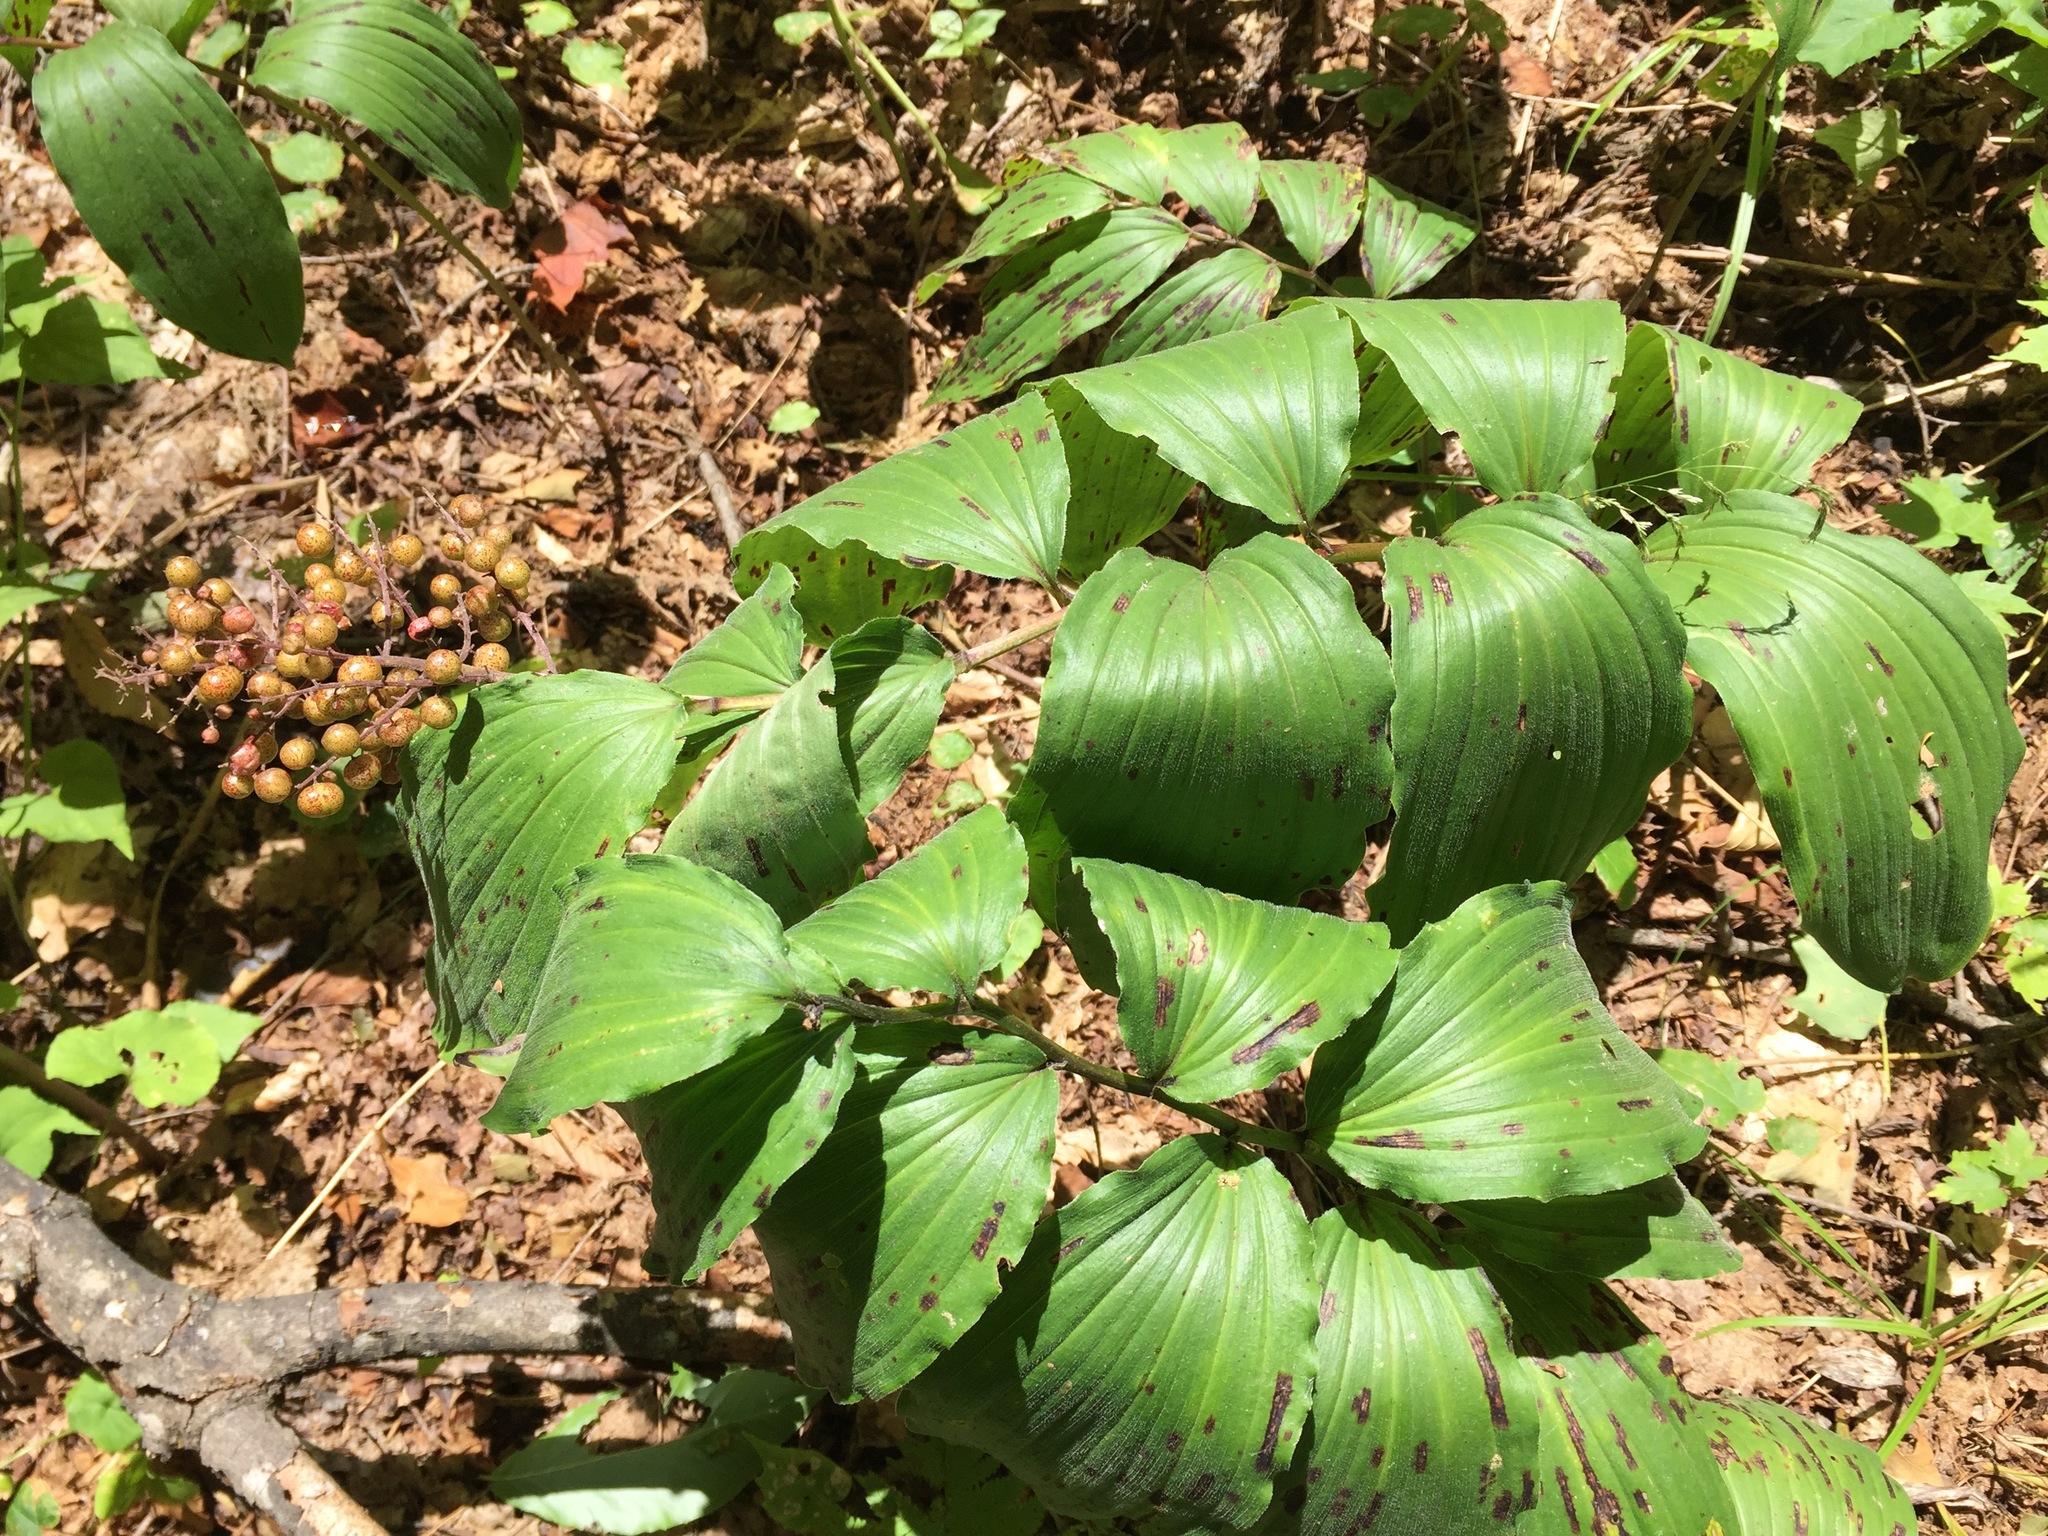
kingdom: Plantae
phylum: Tracheophyta
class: Liliopsida
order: Asparagales
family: Asparagaceae
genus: Maianthemum
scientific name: Maianthemum racemosum
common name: False spikenard
